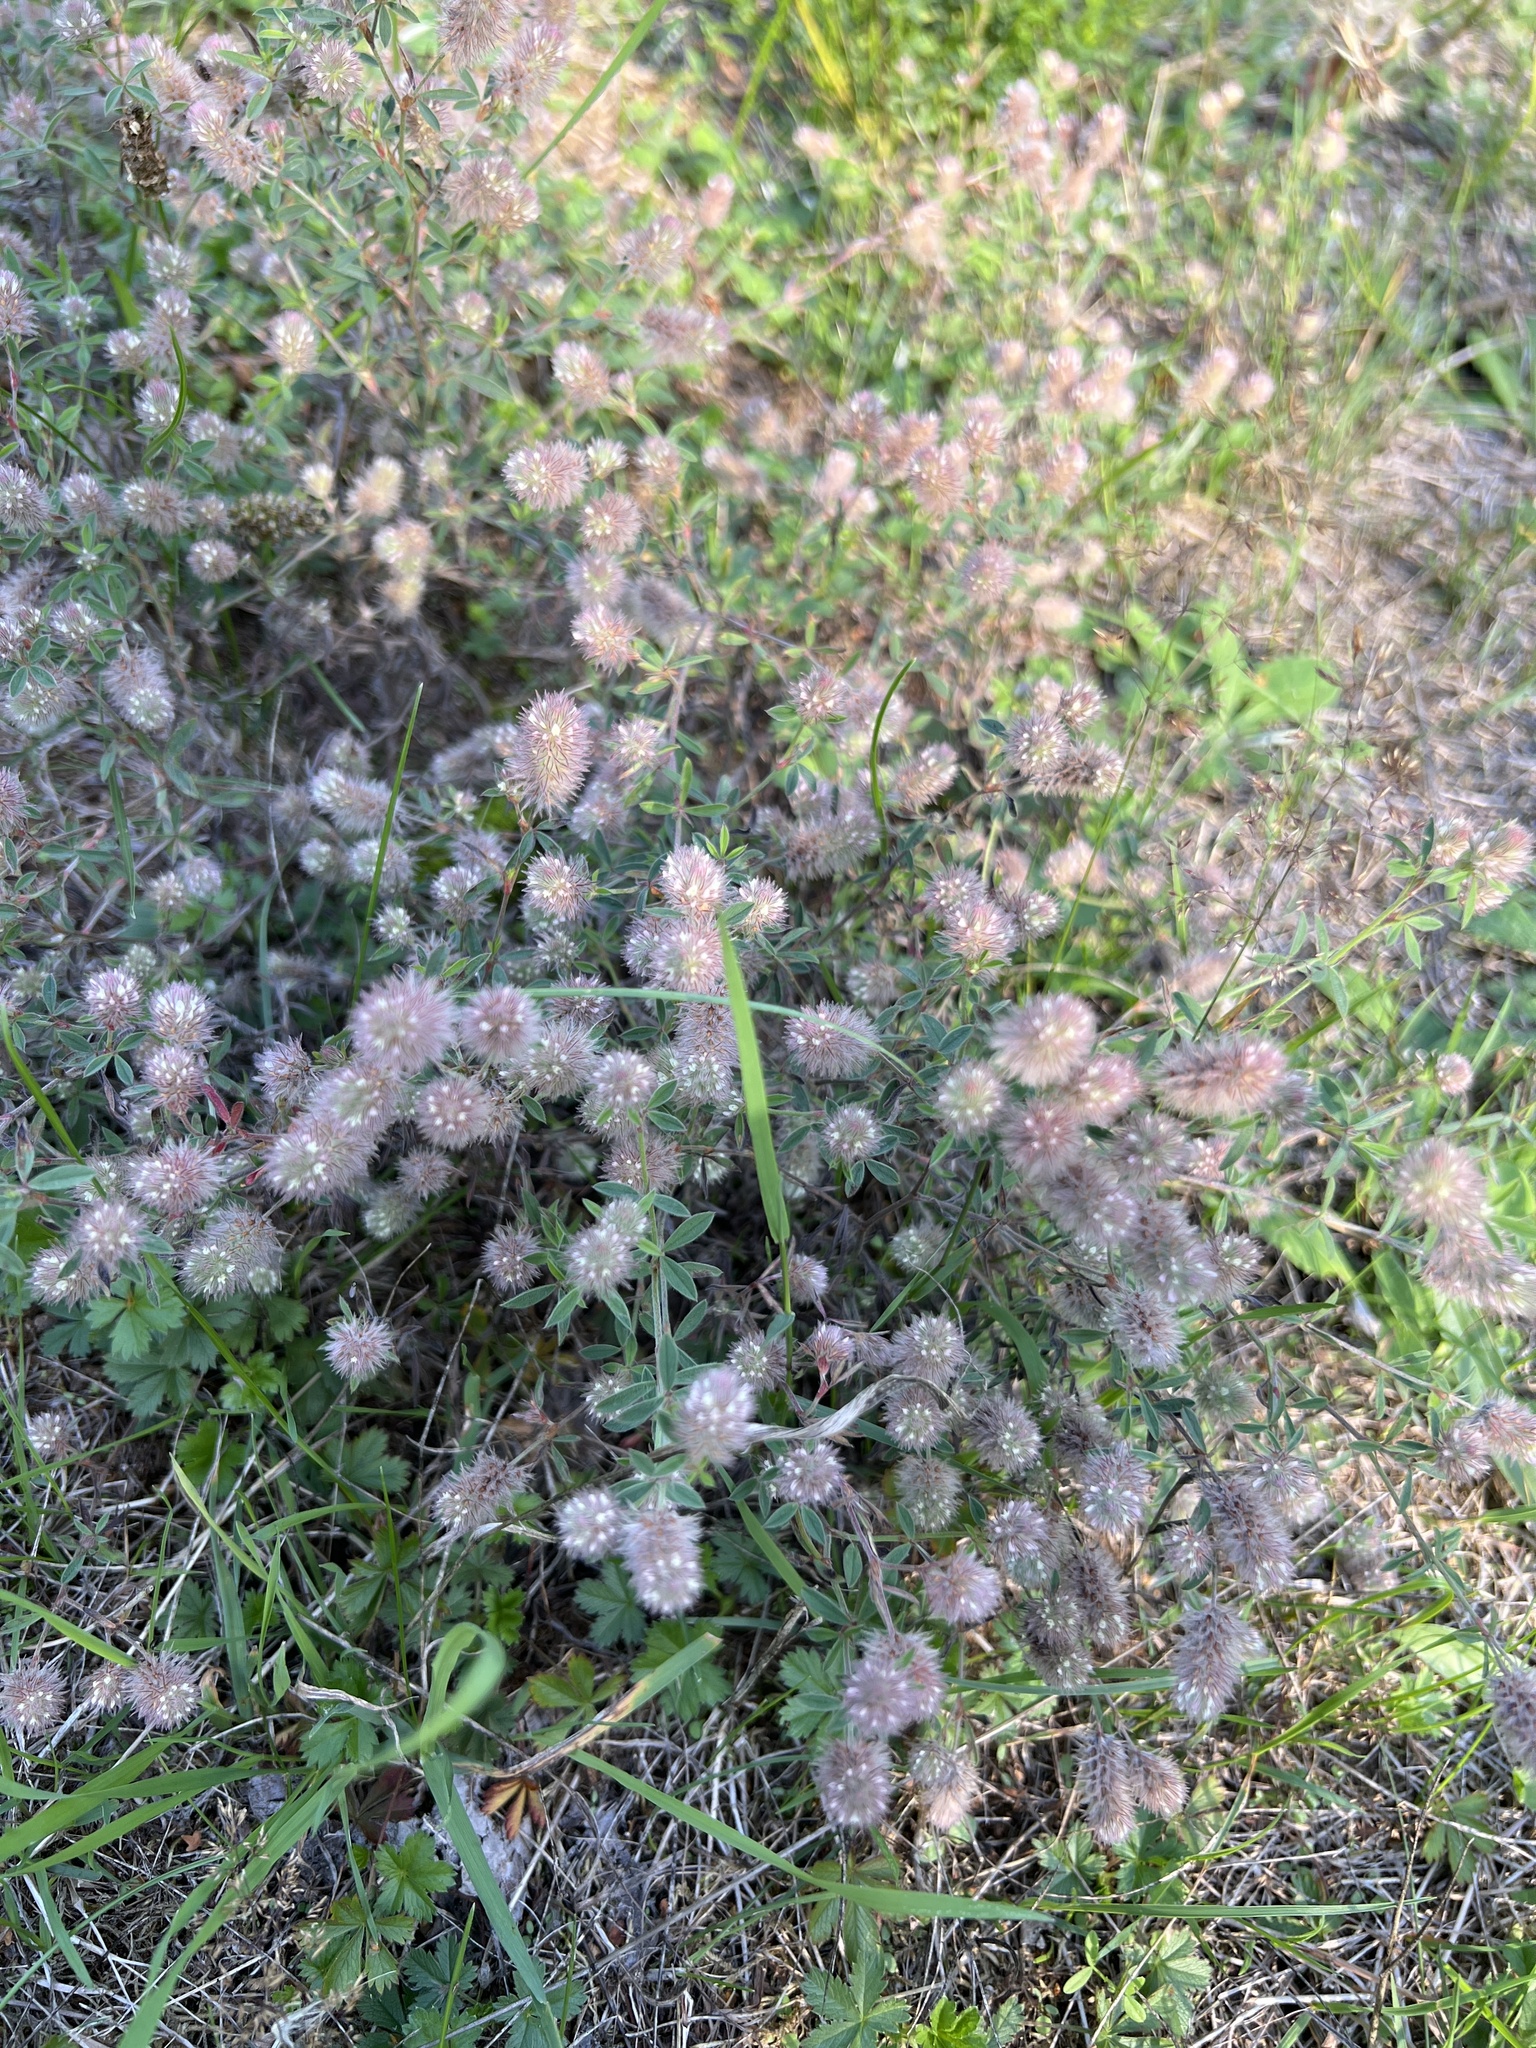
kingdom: Plantae
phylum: Tracheophyta
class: Magnoliopsida
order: Fabales
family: Fabaceae
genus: Trifolium
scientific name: Trifolium arvense
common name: Hare's-foot clover
